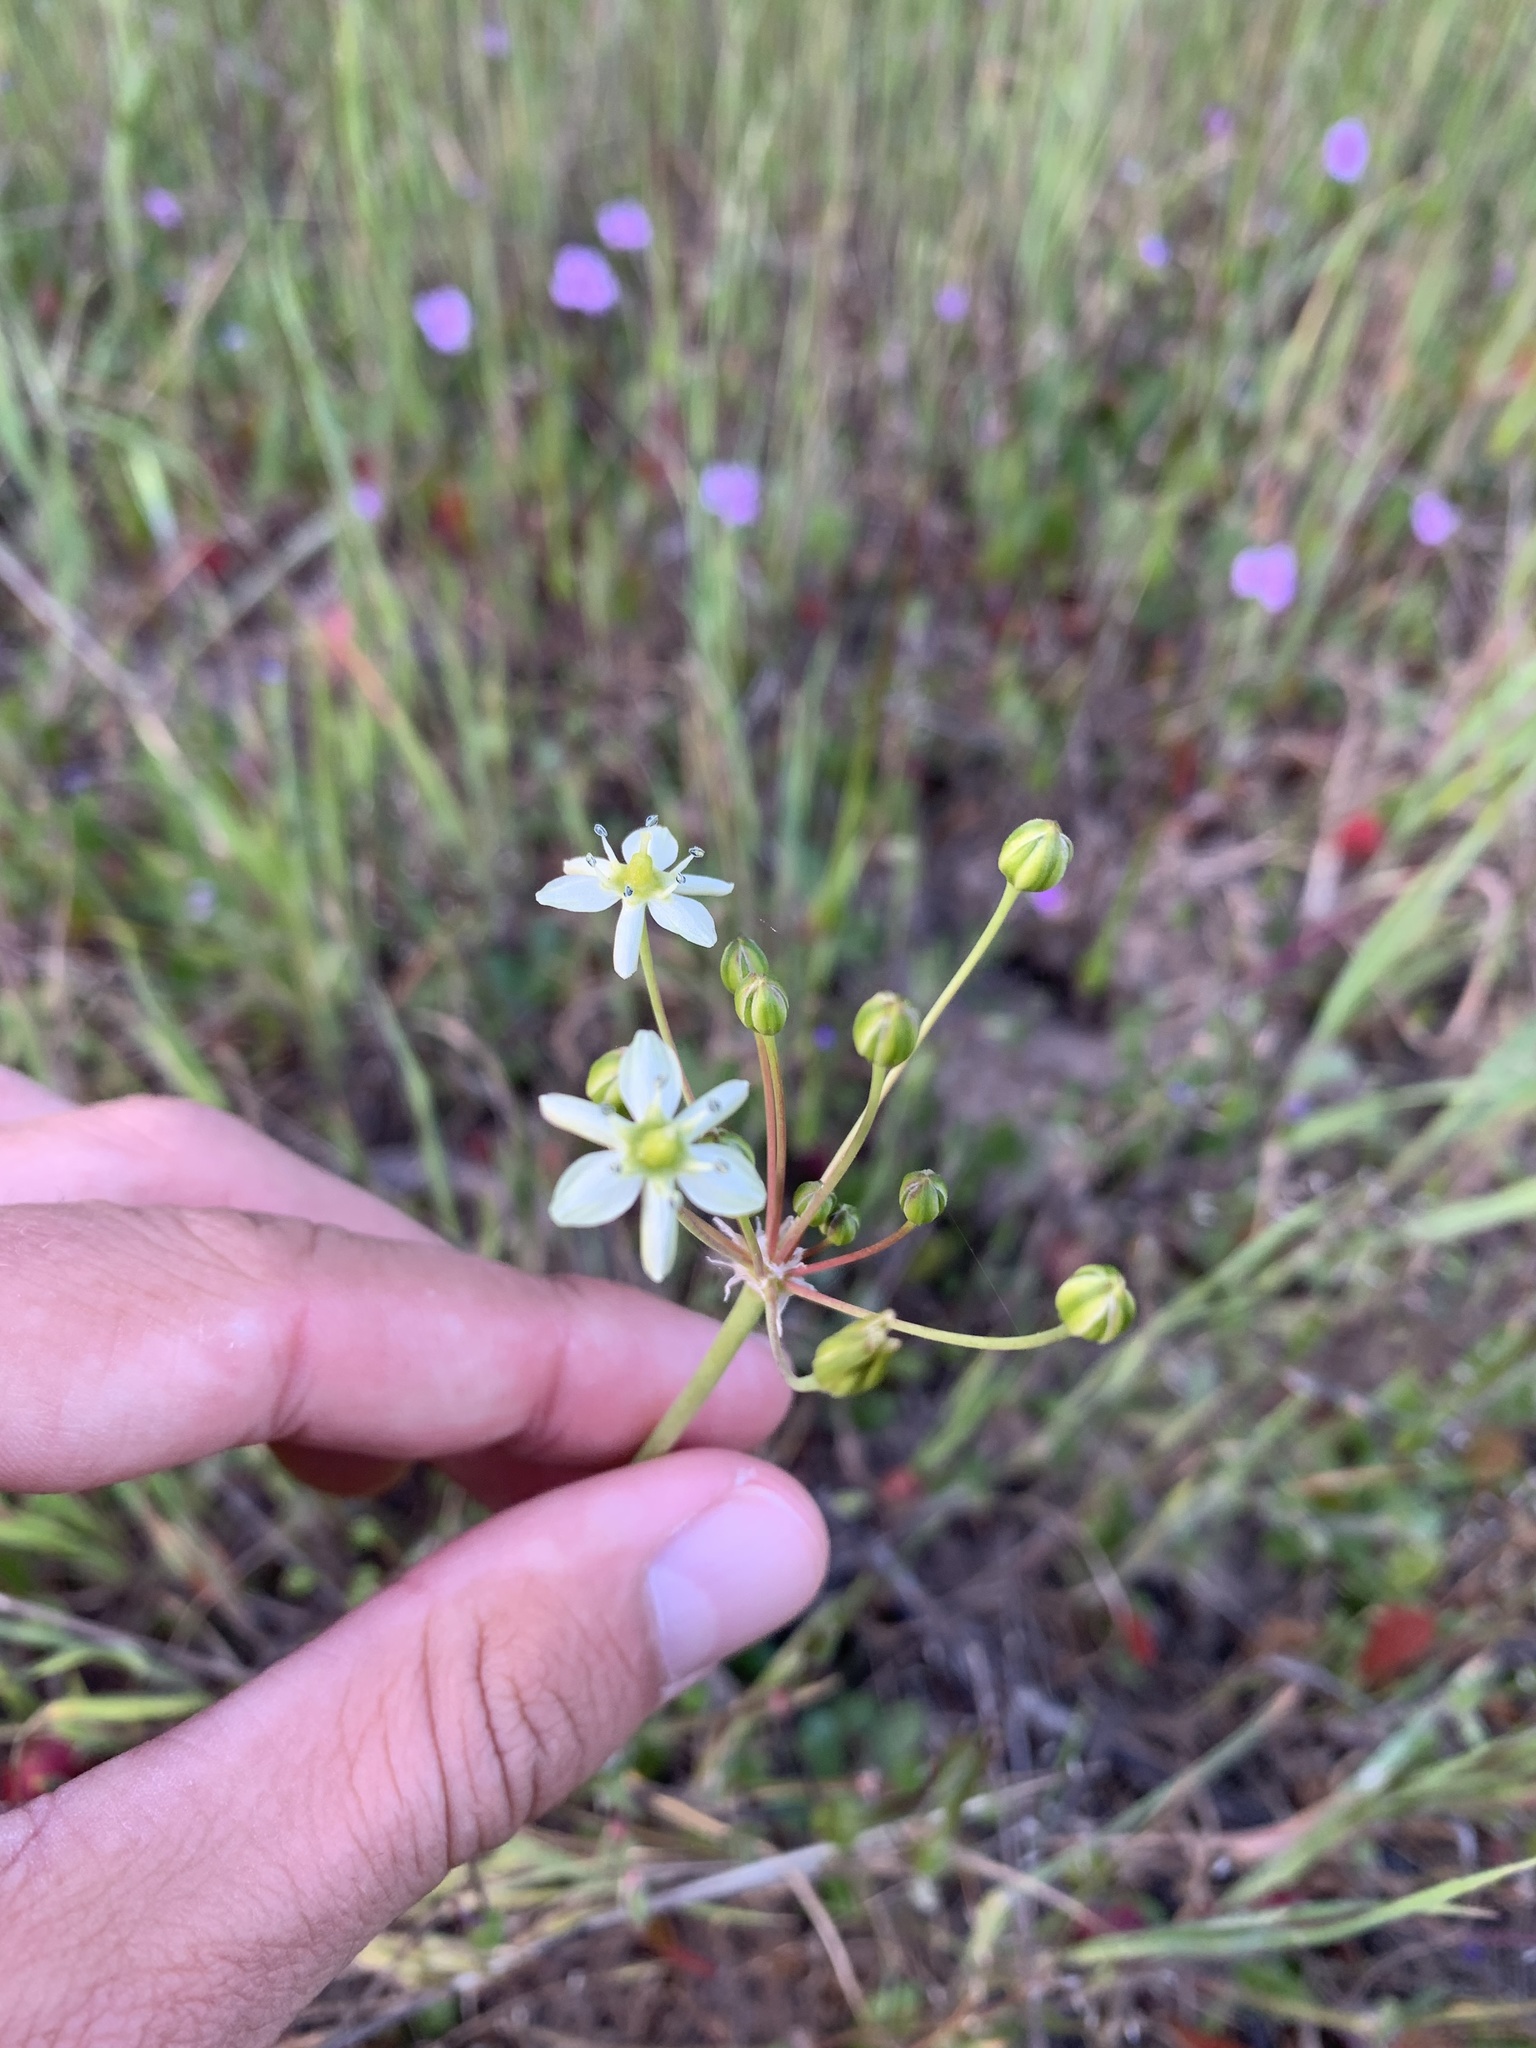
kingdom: Plantae
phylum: Tracheophyta
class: Liliopsida
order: Asparagales
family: Asparagaceae
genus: Muilla
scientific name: Muilla maritima
